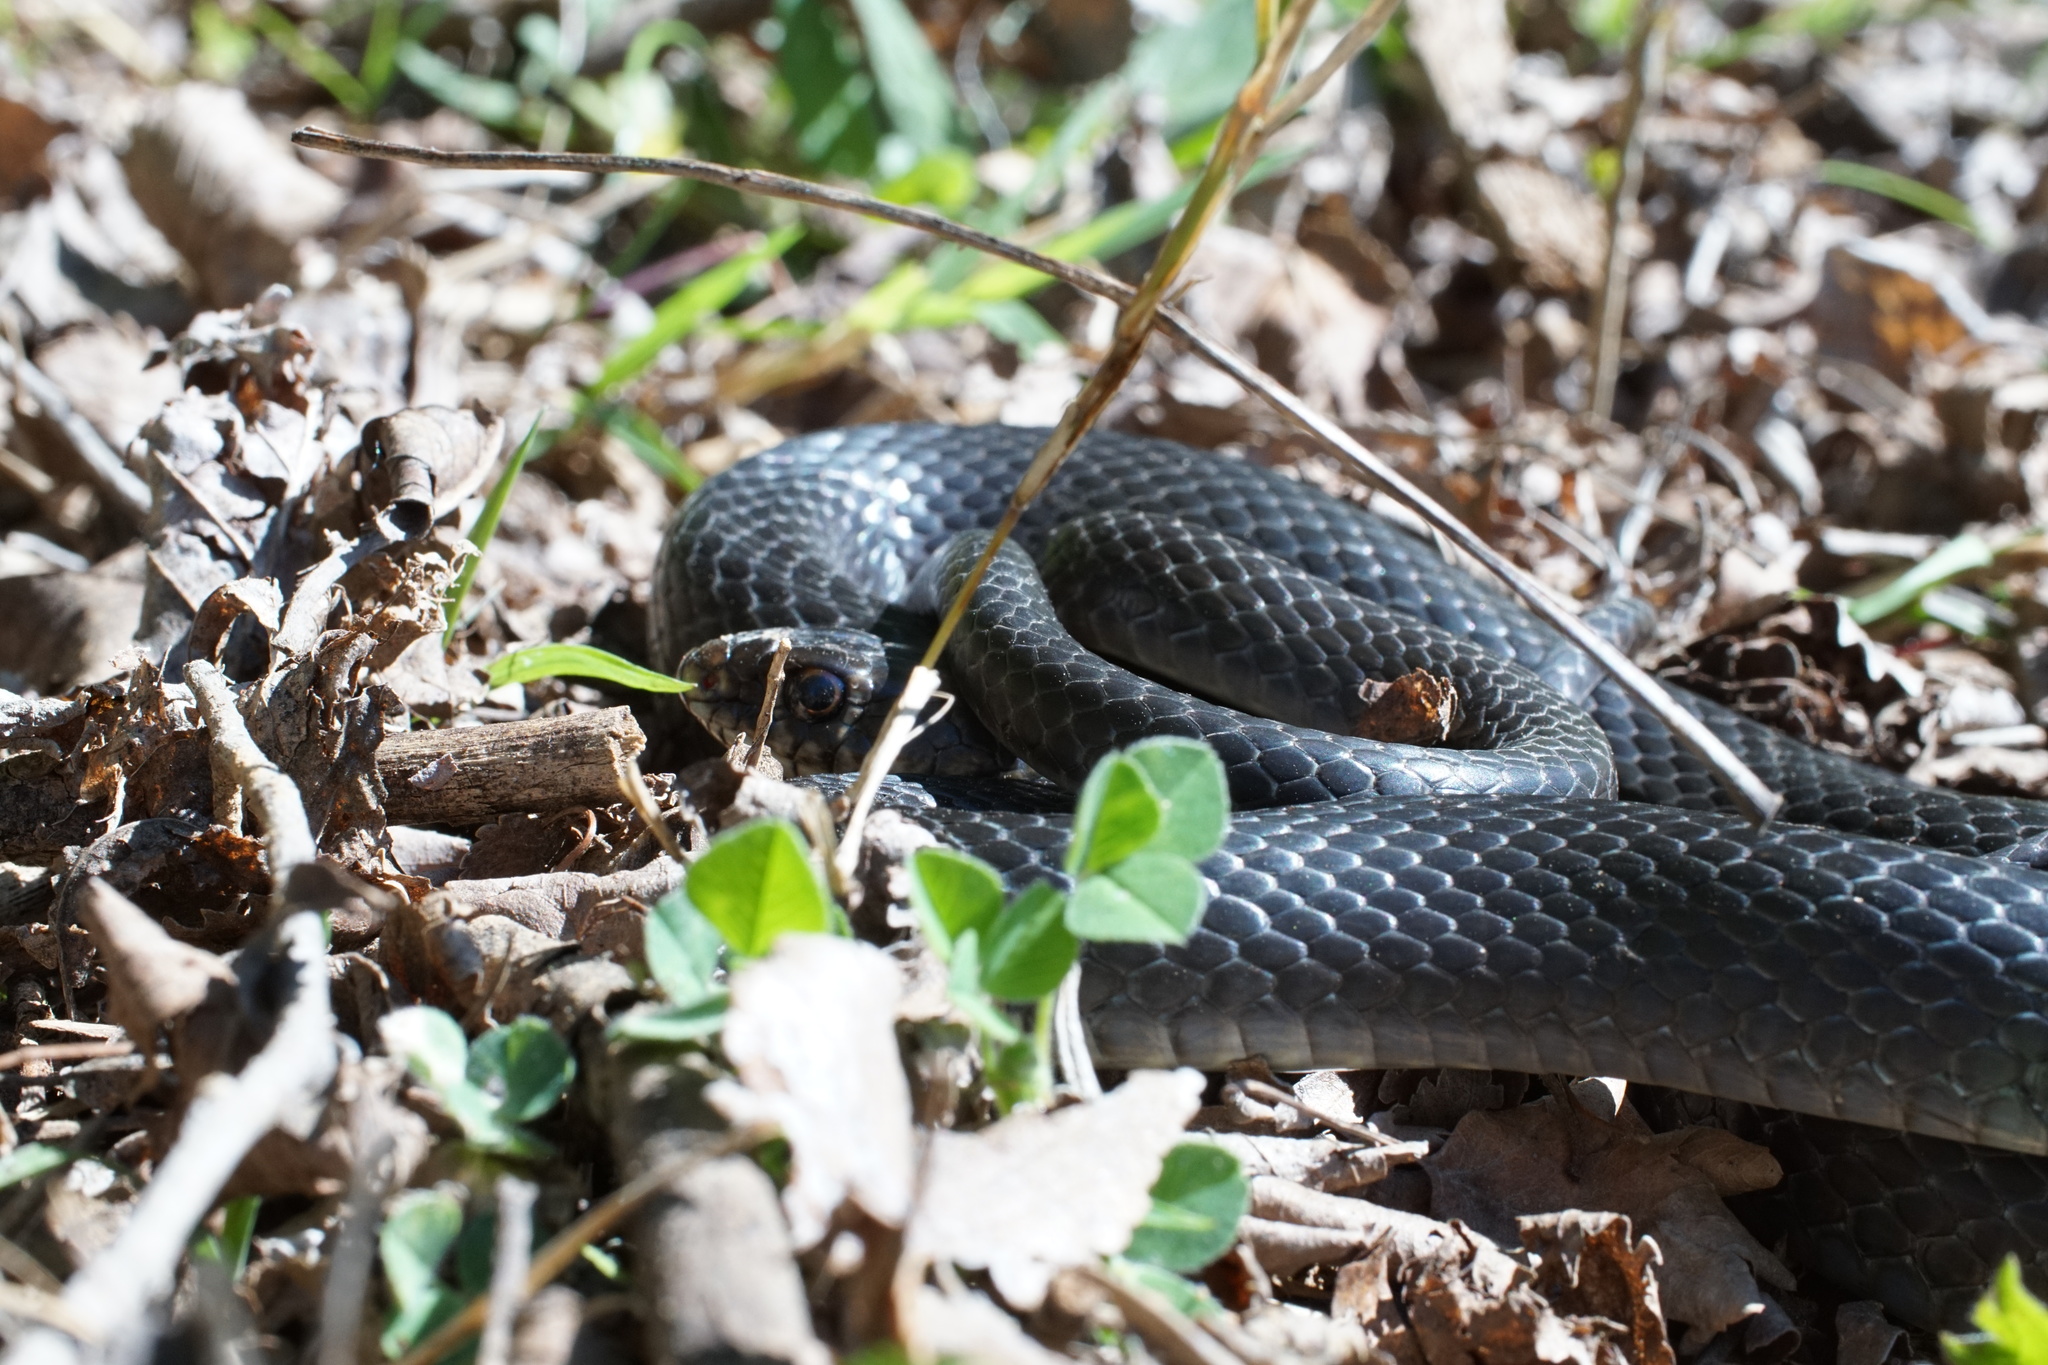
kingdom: Animalia
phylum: Chordata
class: Squamata
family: Colubridae
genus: Hierophis
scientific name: Hierophis viridiflavus
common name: Green whip snake
